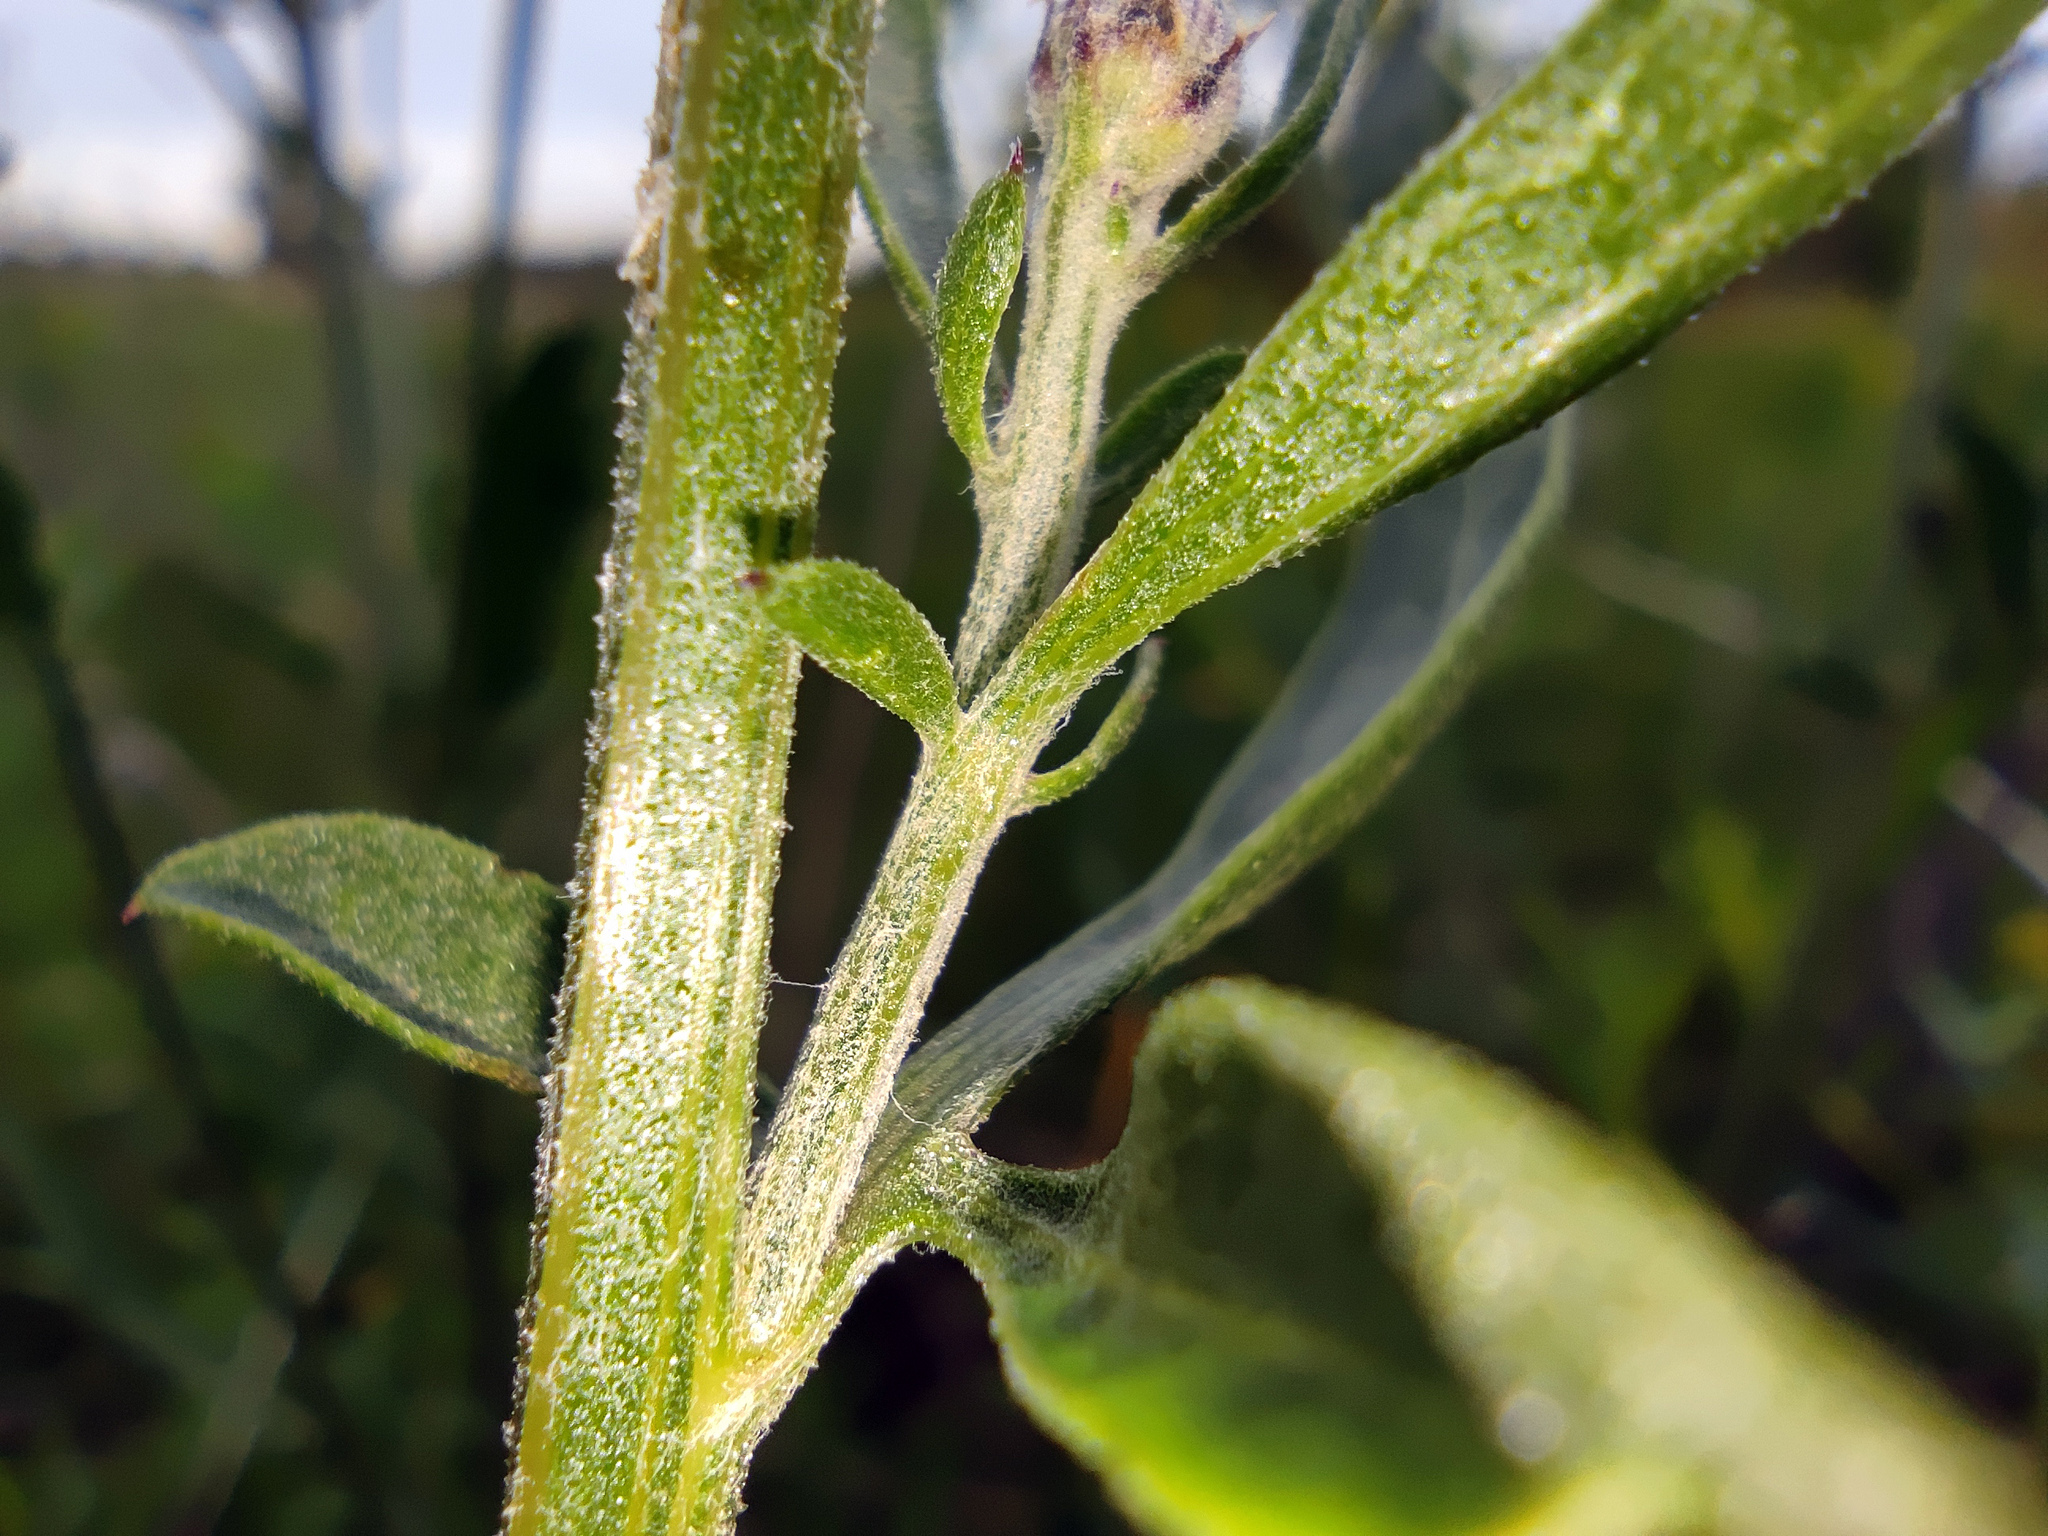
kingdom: Plantae
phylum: Tracheophyta
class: Magnoliopsida
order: Asterales
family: Asteraceae
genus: Centaurea
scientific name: Centaurea scabiosa
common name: Greater knapweed
